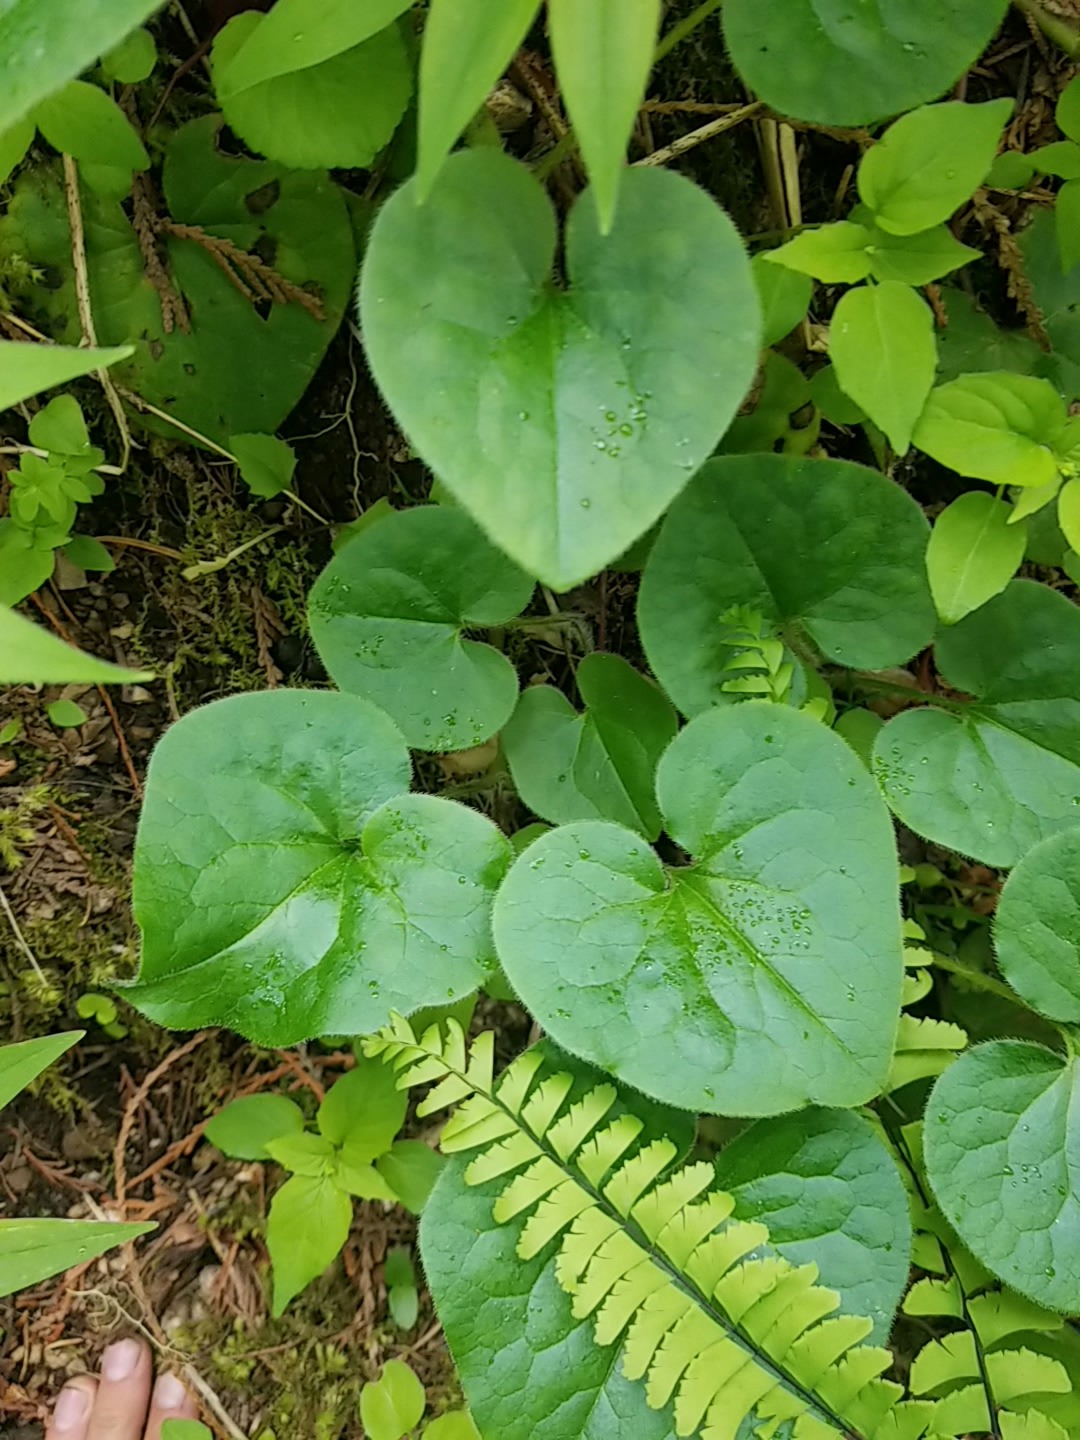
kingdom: Plantae
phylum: Tracheophyta
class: Magnoliopsida
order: Piperales
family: Aristolochiaceae
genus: Asarum
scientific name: Asarum caudatum
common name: Wild ginger
